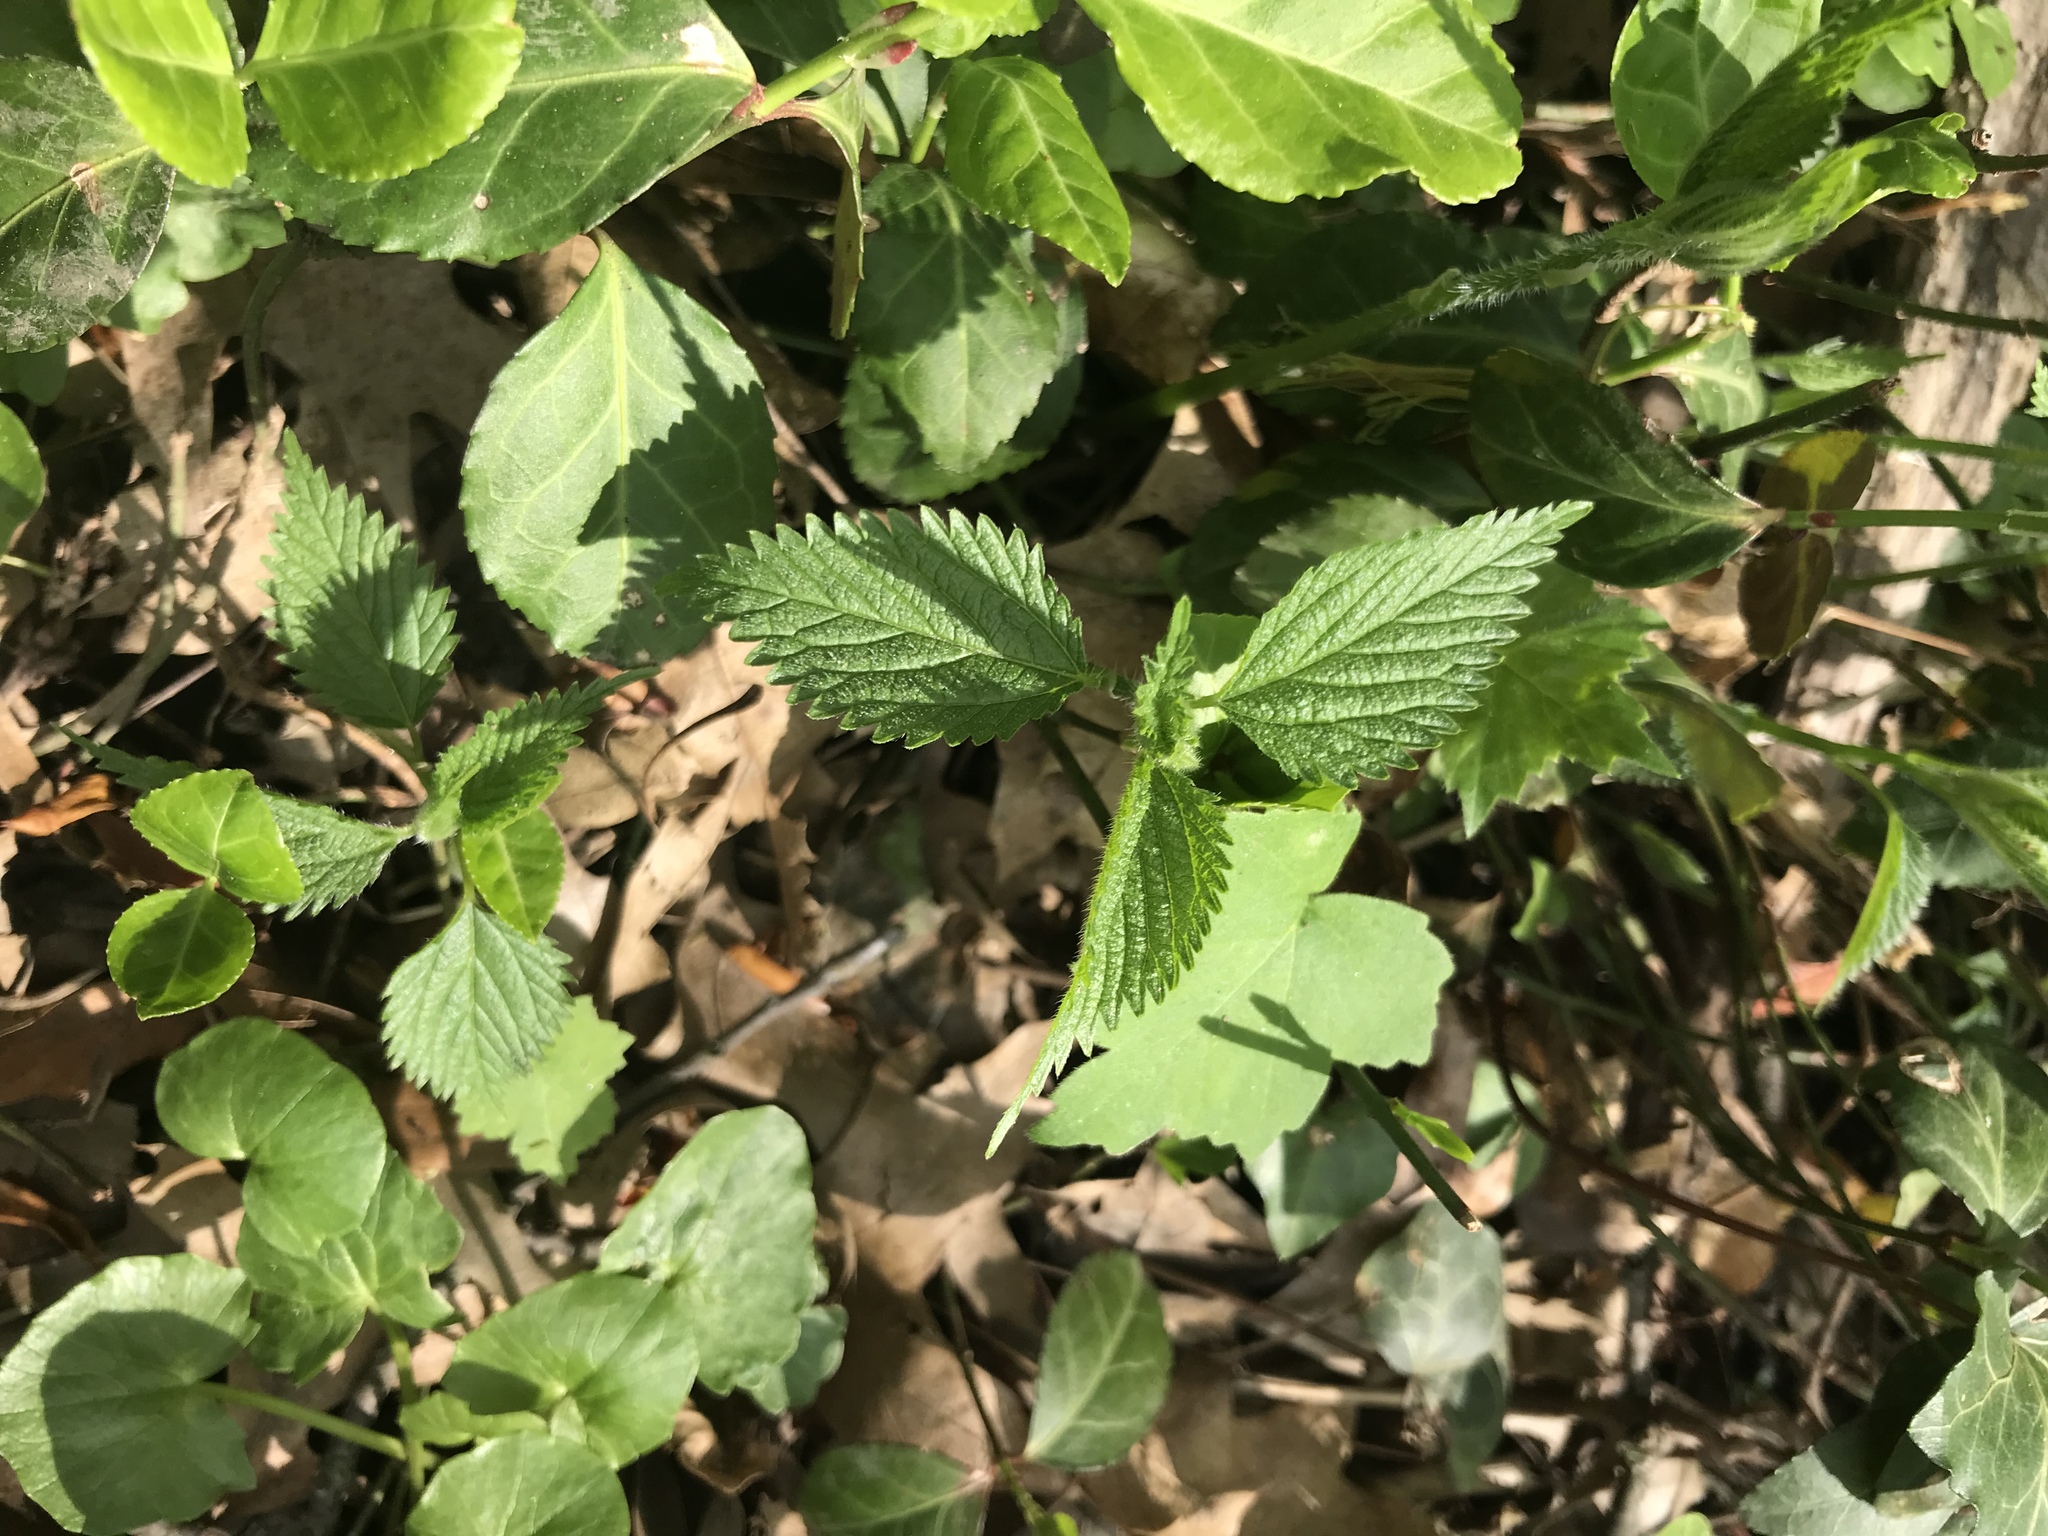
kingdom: Plantae
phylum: Tracheophyta
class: Magnoliopsida
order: Rosales
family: Urticaceae
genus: Urtica
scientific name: Urtica dioica
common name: Common nettle
